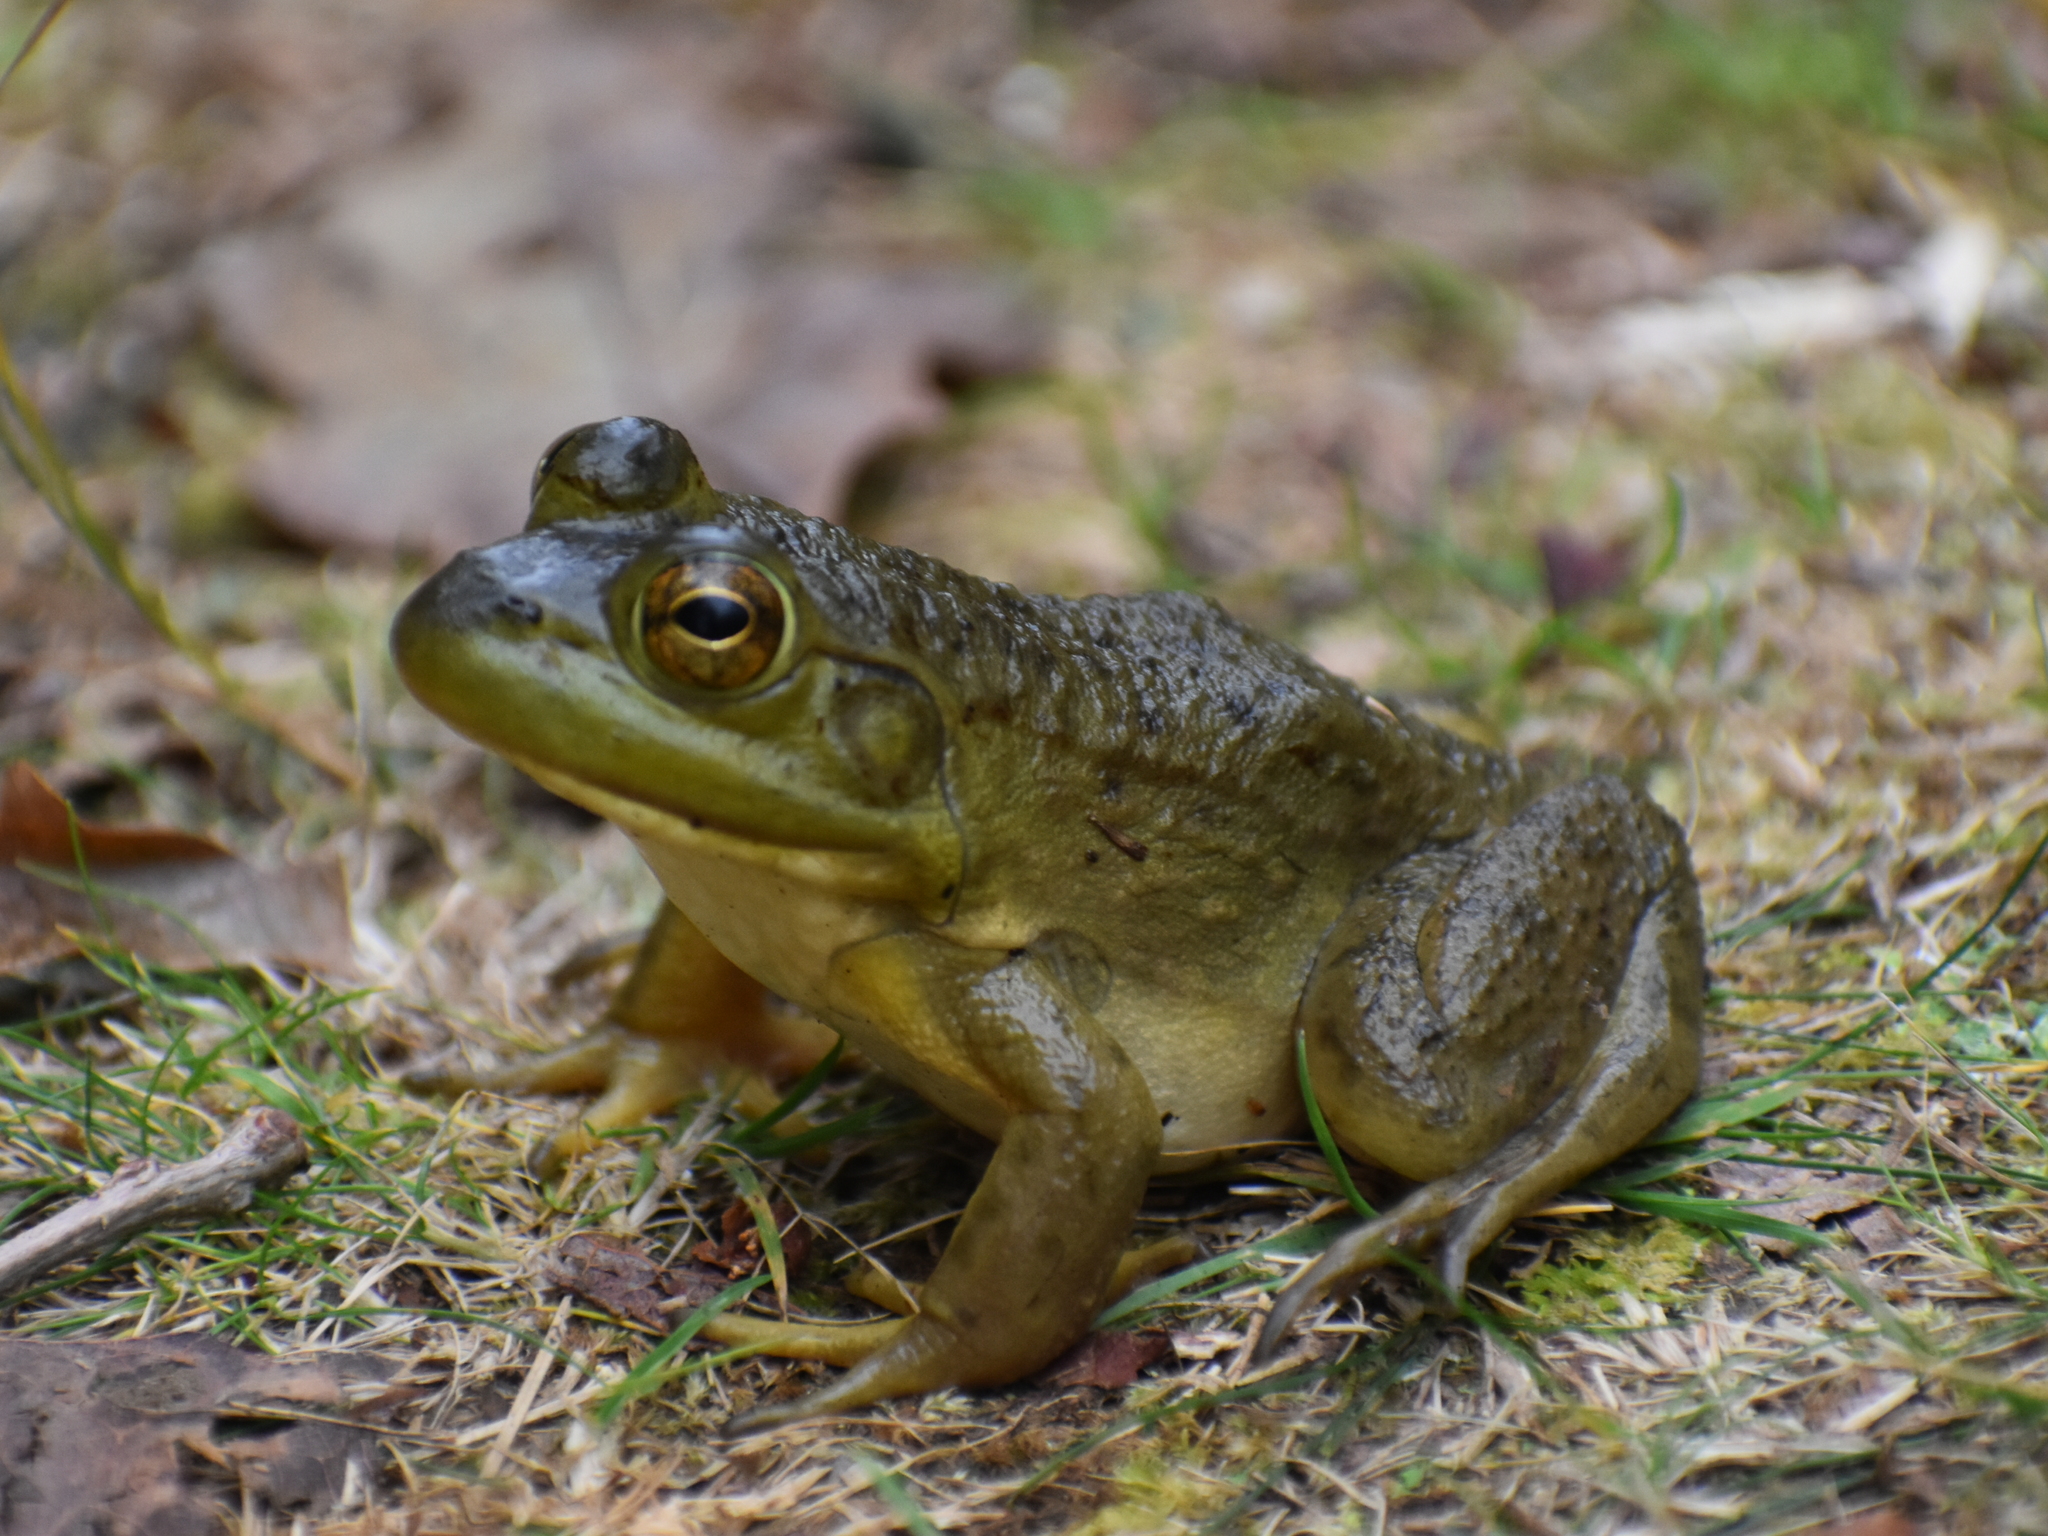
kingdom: Animalia
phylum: Chordata
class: Amphibia
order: Anura
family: Ranidae
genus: Lithobates
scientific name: Lithobates catesbeianus
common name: American bullfrog
